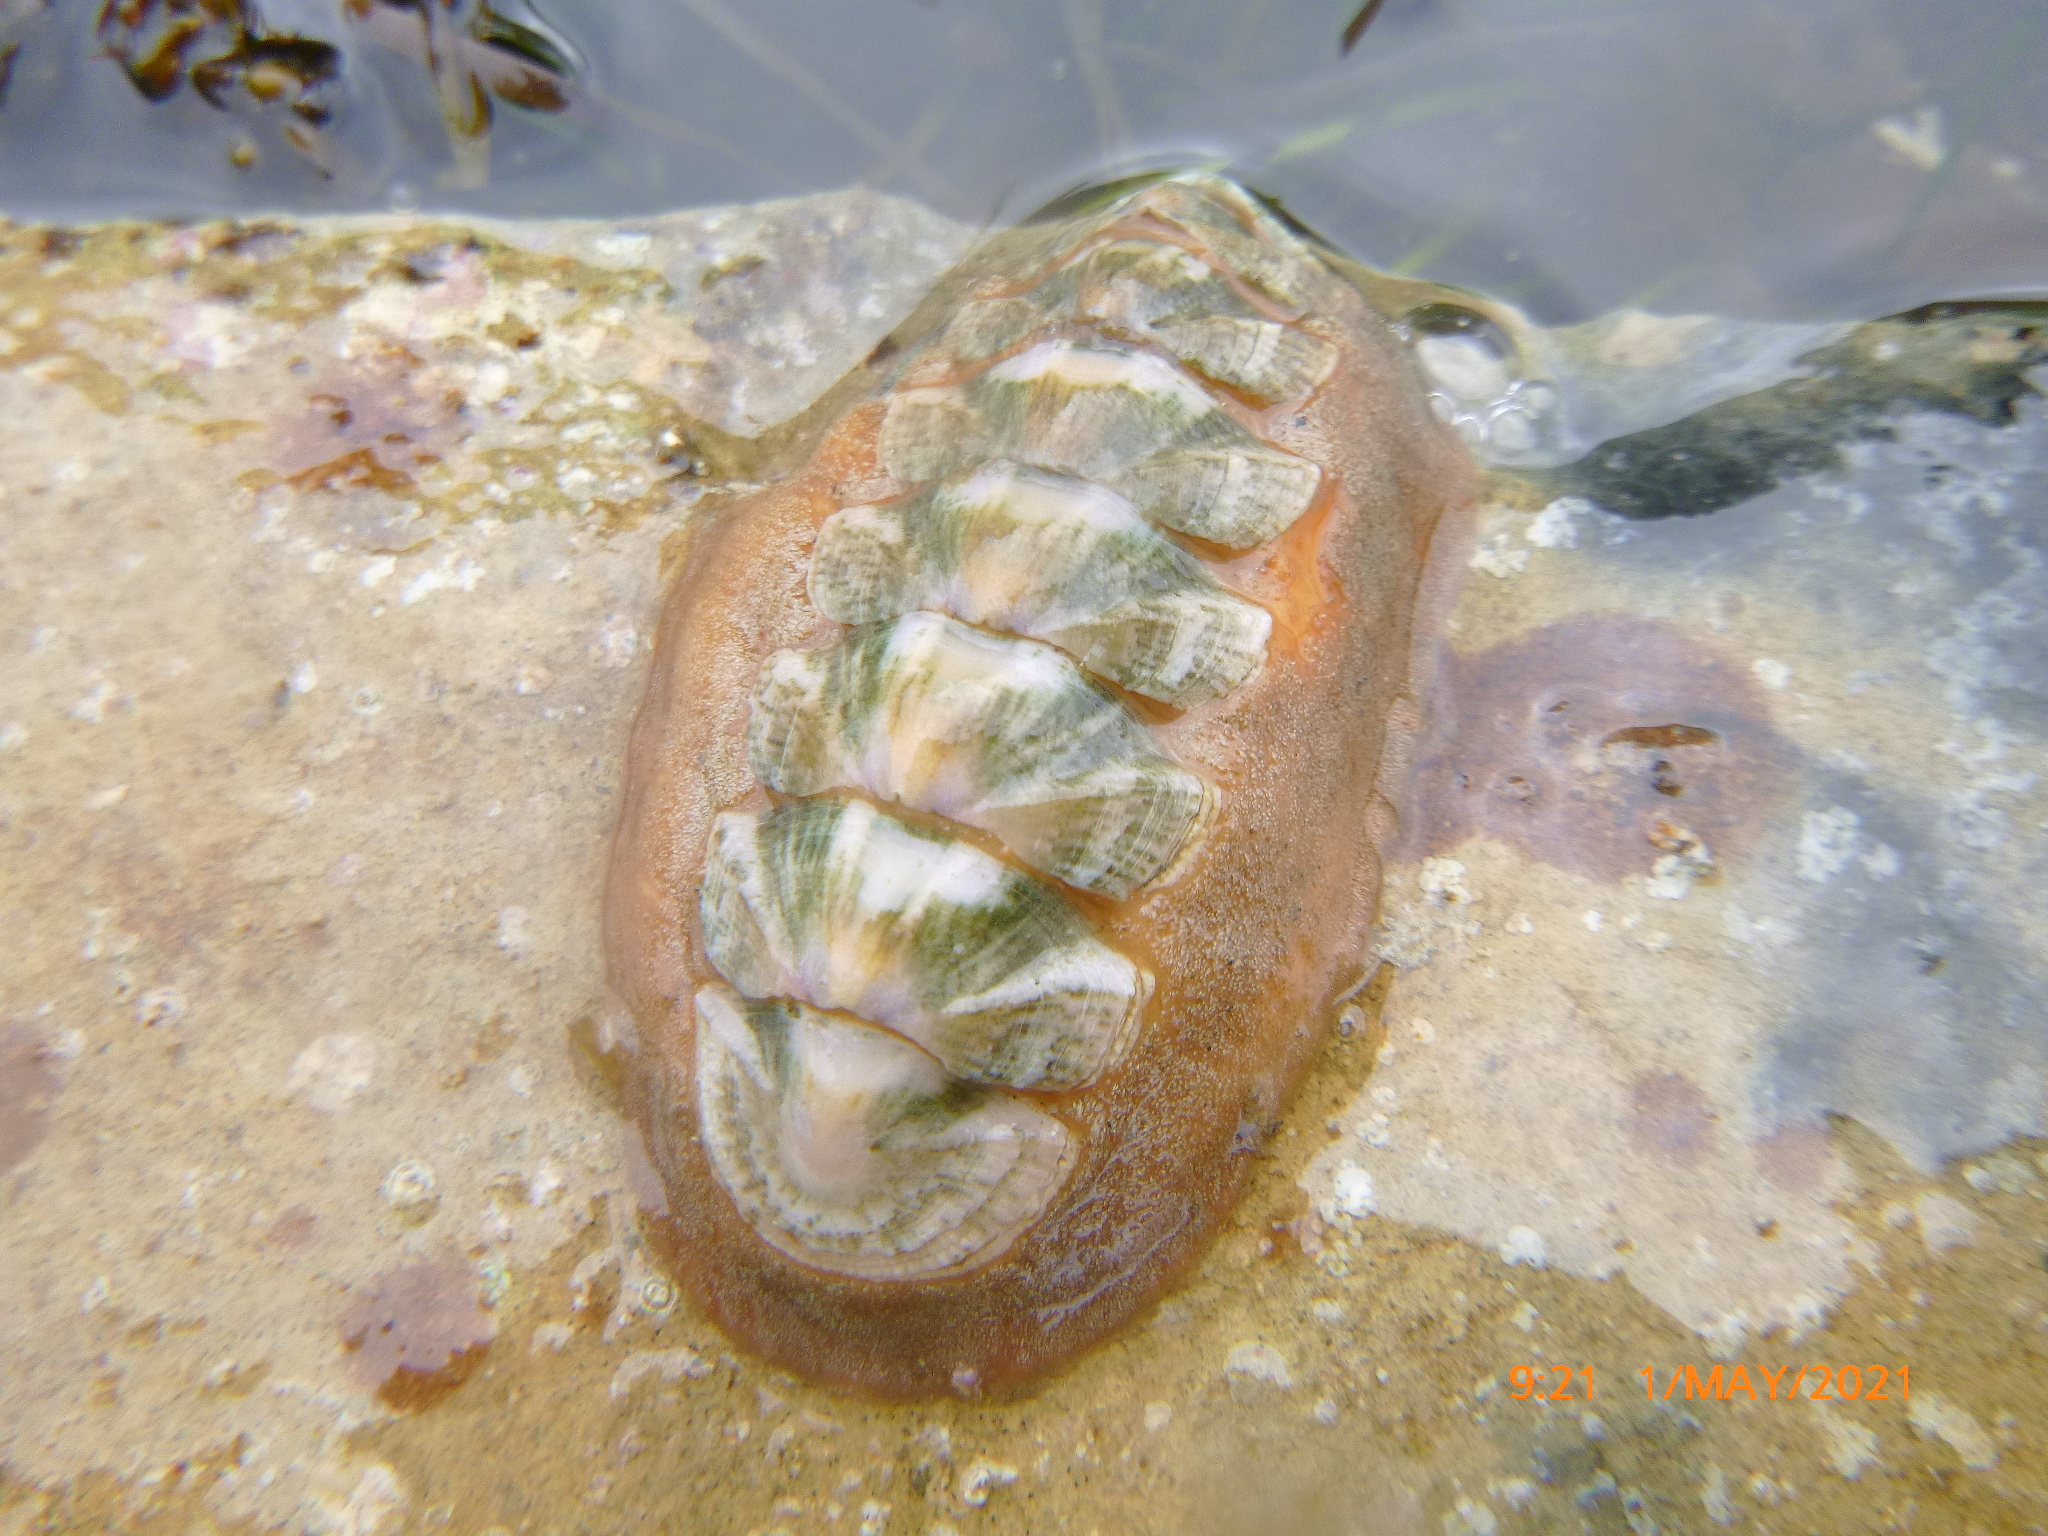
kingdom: Animalia
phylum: Mollusca
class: Polyplacophora
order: Chitonida
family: Ischnochitonidae
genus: Stenoplax
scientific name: Stenoplax conspicua
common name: Conspicuous chiton
